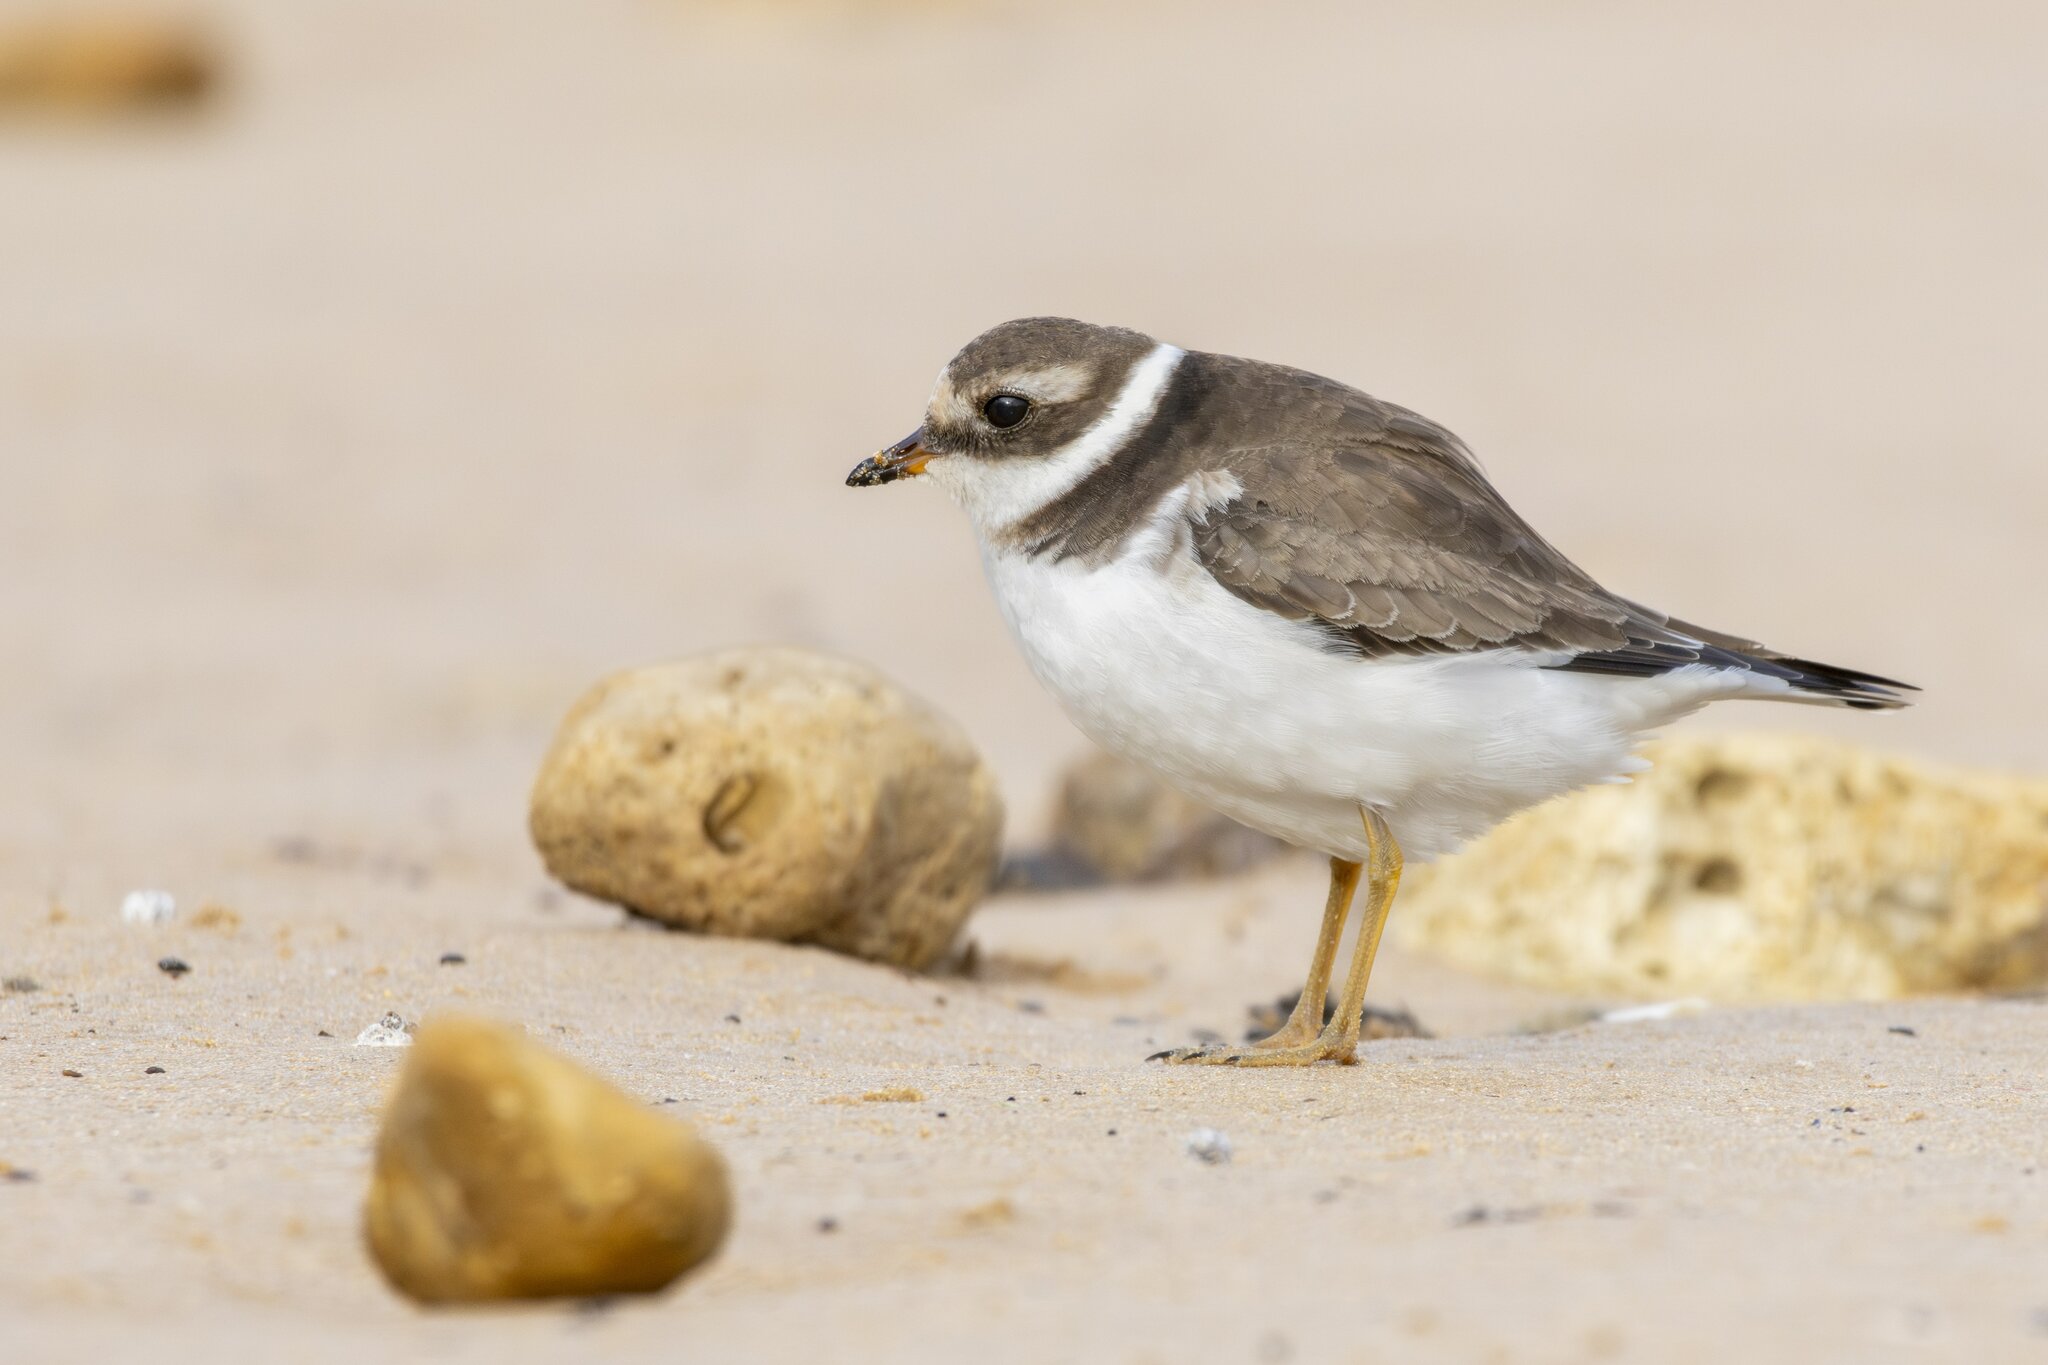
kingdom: Animalia
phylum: Chordata
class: Aves
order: Charadriiformes
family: Charadriidae
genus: Charadrius
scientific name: Charadrius hiaticula
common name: Common ringed plover
